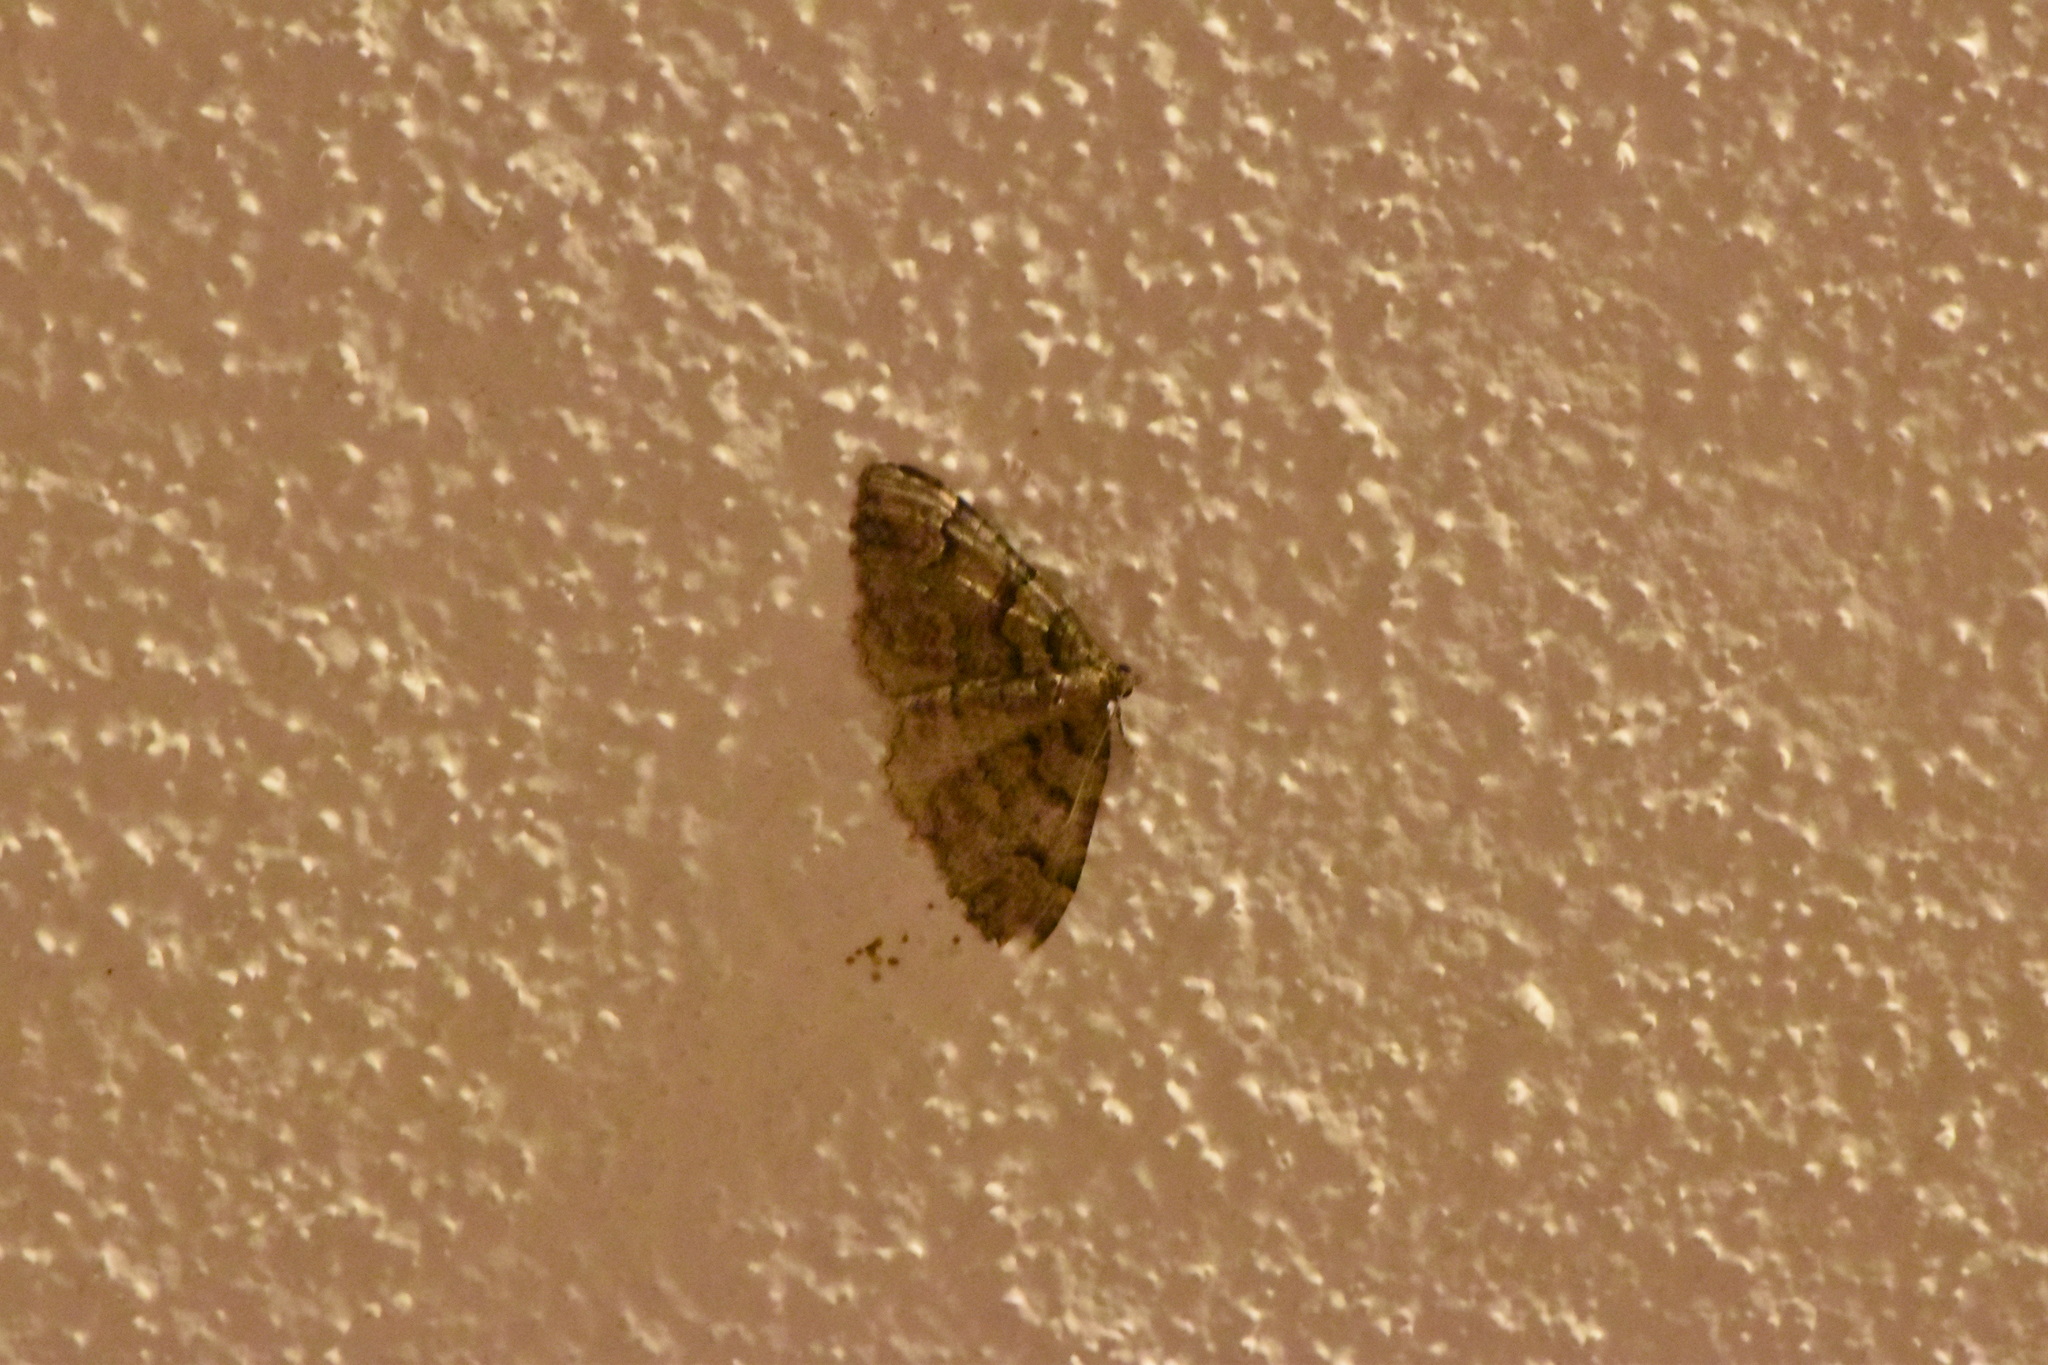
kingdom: Animalia
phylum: Arthropoda
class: Insecta
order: Lepidoptera
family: Geometridae
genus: Catarhoe
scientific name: Catarhoe basochesiata
